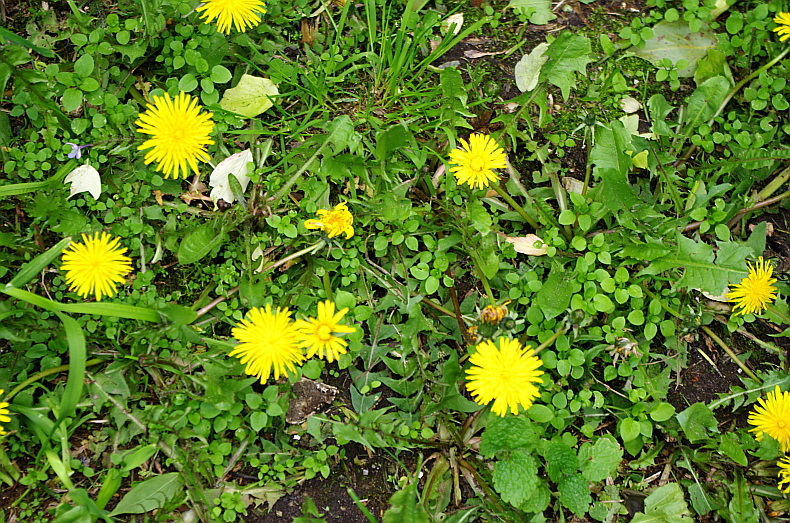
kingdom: Plantae
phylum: Tracheophyta
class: Magnoliopsida
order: Asterales
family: Asteraceae
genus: Taraxacum
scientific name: Taraxacum officinale
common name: Common dandelion
